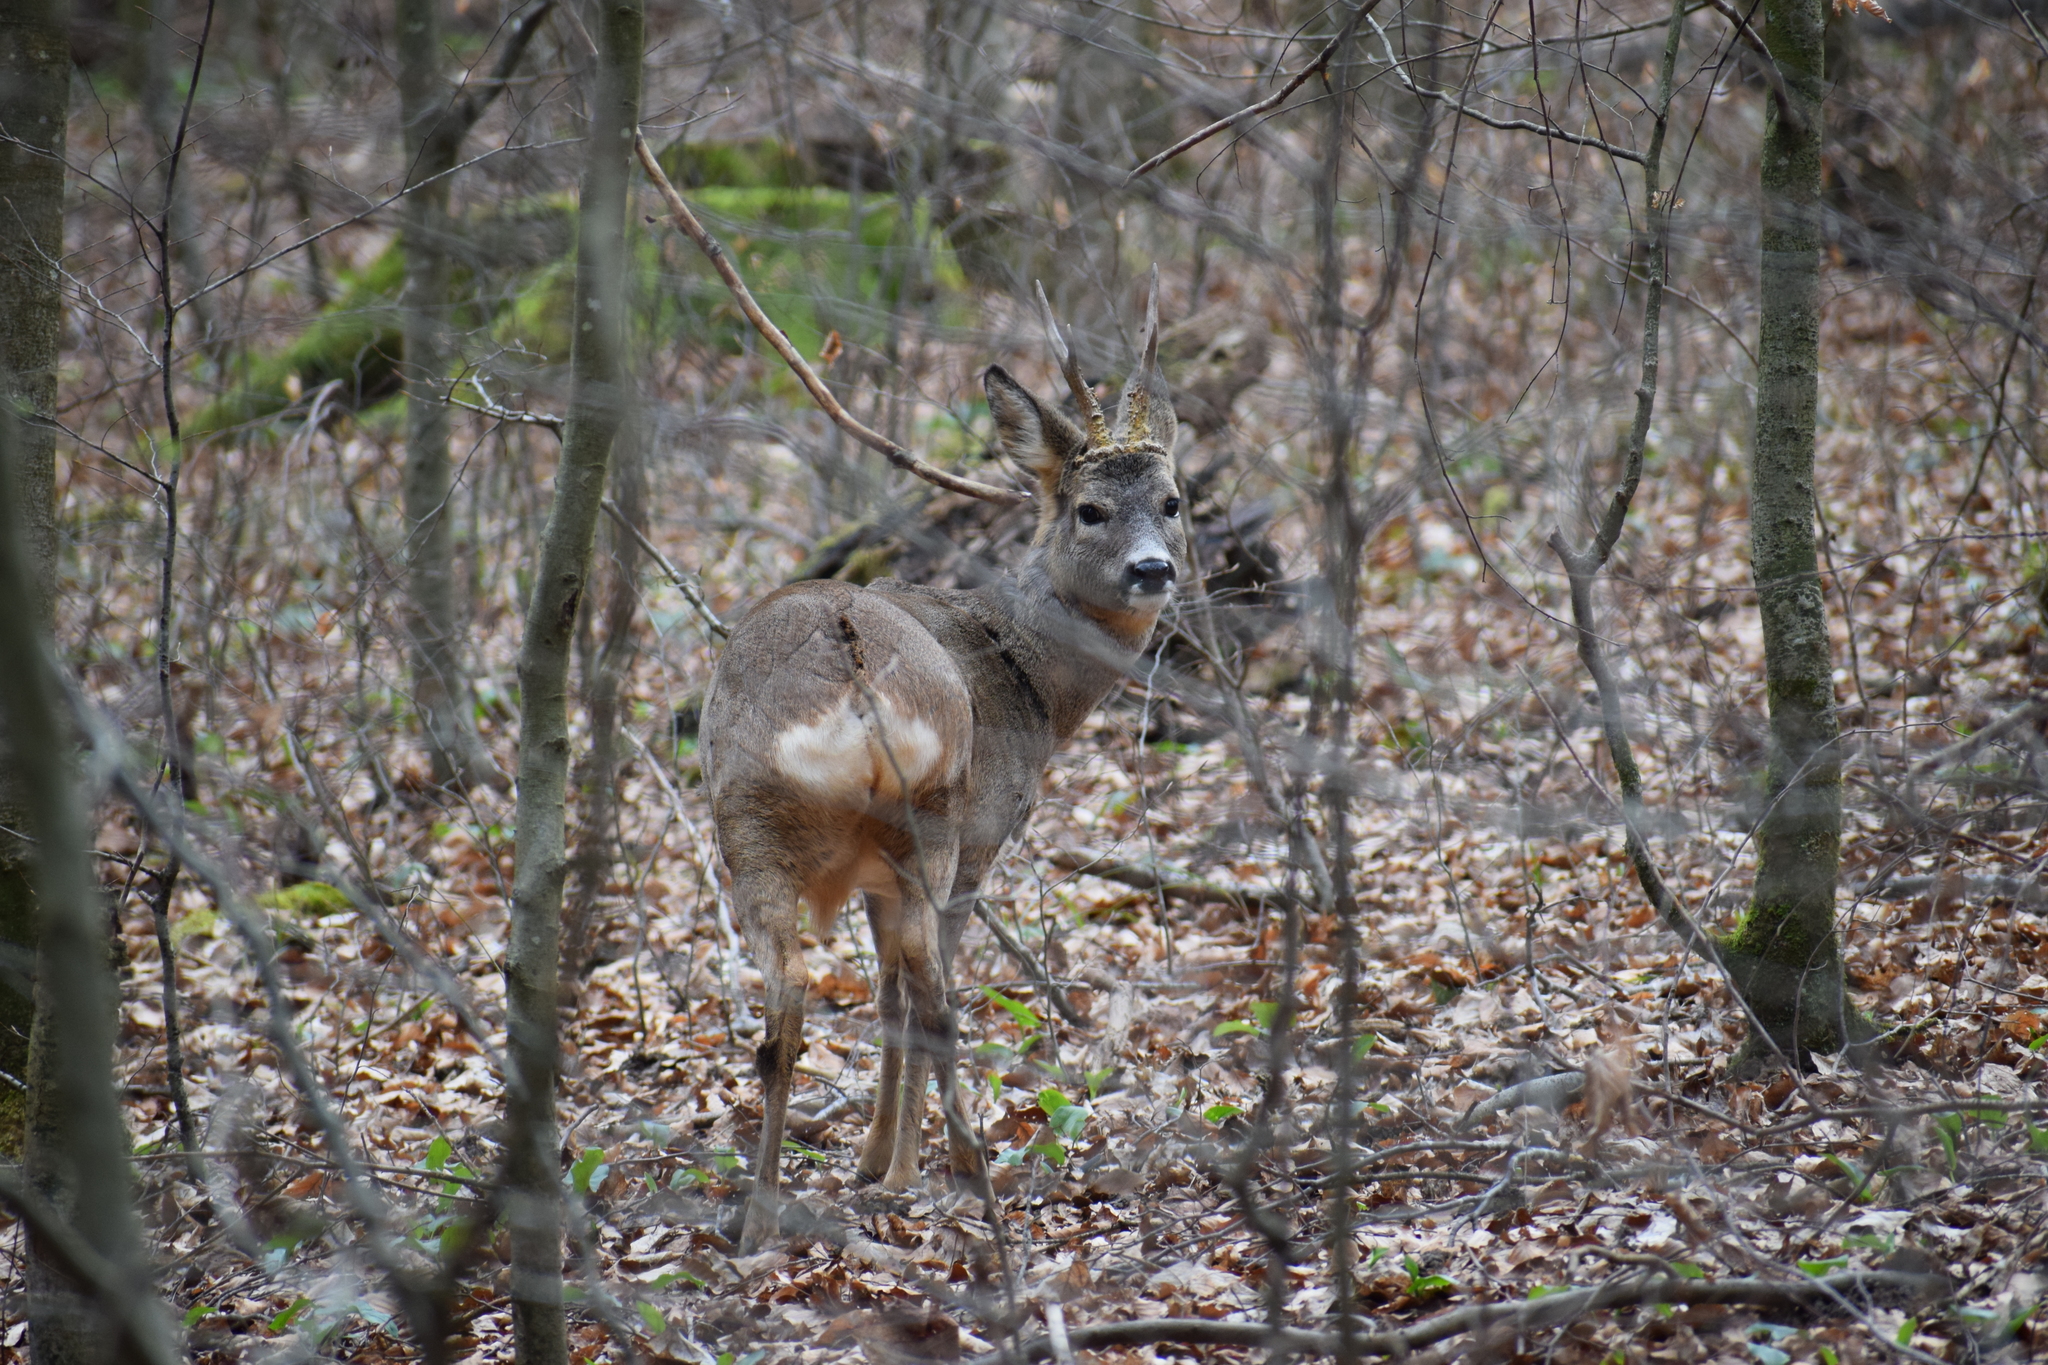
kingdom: Animalia
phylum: Chordata
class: Mammalia
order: Artiodactyla
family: Cervidae
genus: Capreolus
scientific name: Capreolus capreolus
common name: Western roe deer
